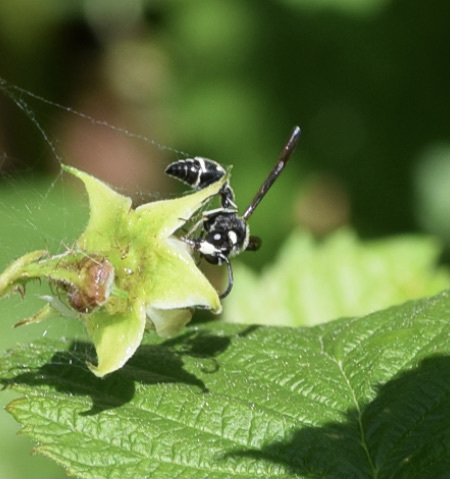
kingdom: Animalia
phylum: Arthropoda
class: Insecta
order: Hymenoptera
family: Vespidae
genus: Eumenes
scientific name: Eumenes fraternus
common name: Fraternal potter wasp
